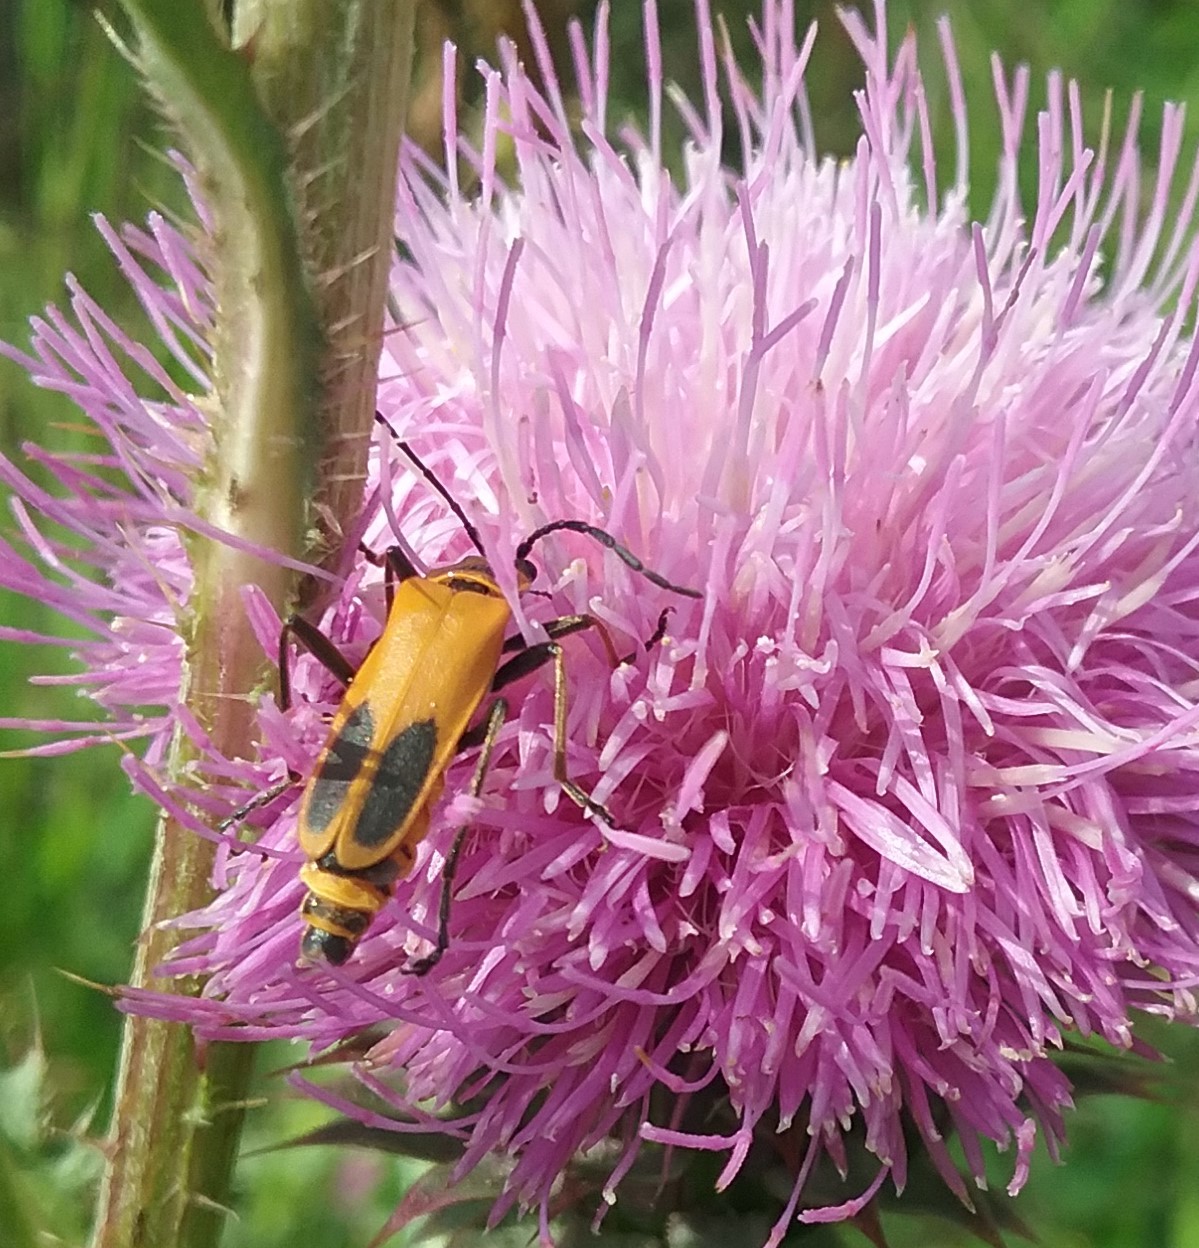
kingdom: Animalia
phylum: Arthropoda
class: Insecta
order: Coleoptera
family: Cantharidae
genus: Chauliognathus
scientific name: Chauliognathus pensylvanicus
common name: Goldenrod soldier beetle
